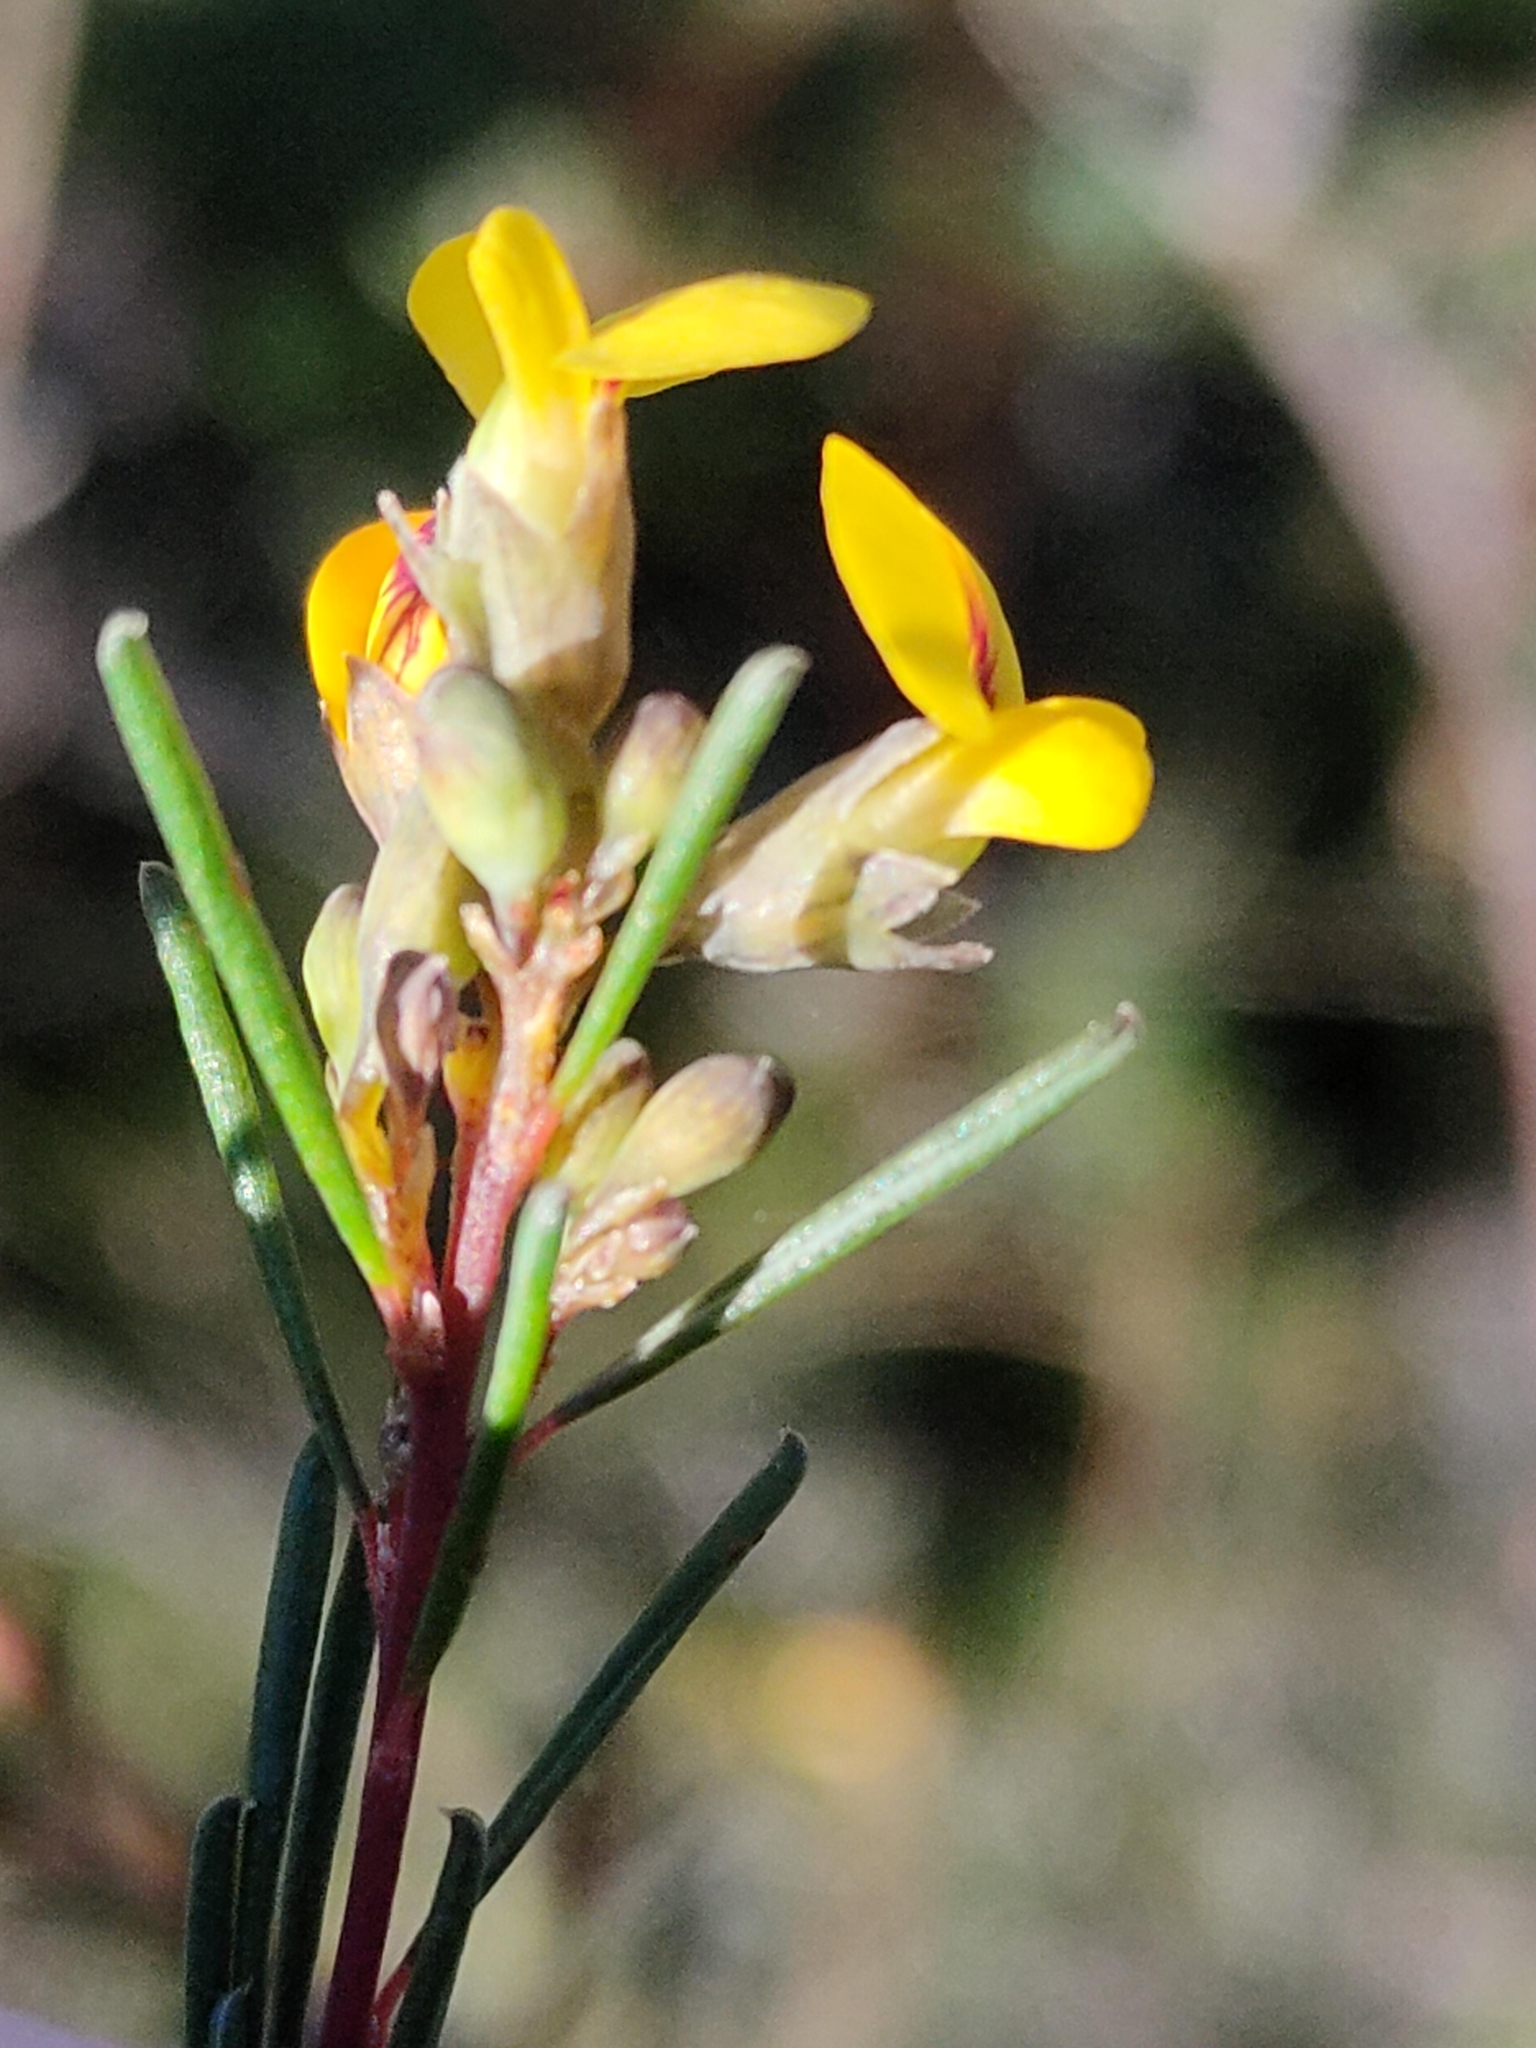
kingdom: Plantae
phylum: Tracheophyta
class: Magnoliopsida
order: Fabales
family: Fabaceae
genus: Dillwynia
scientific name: Dillwynia glaberrima
